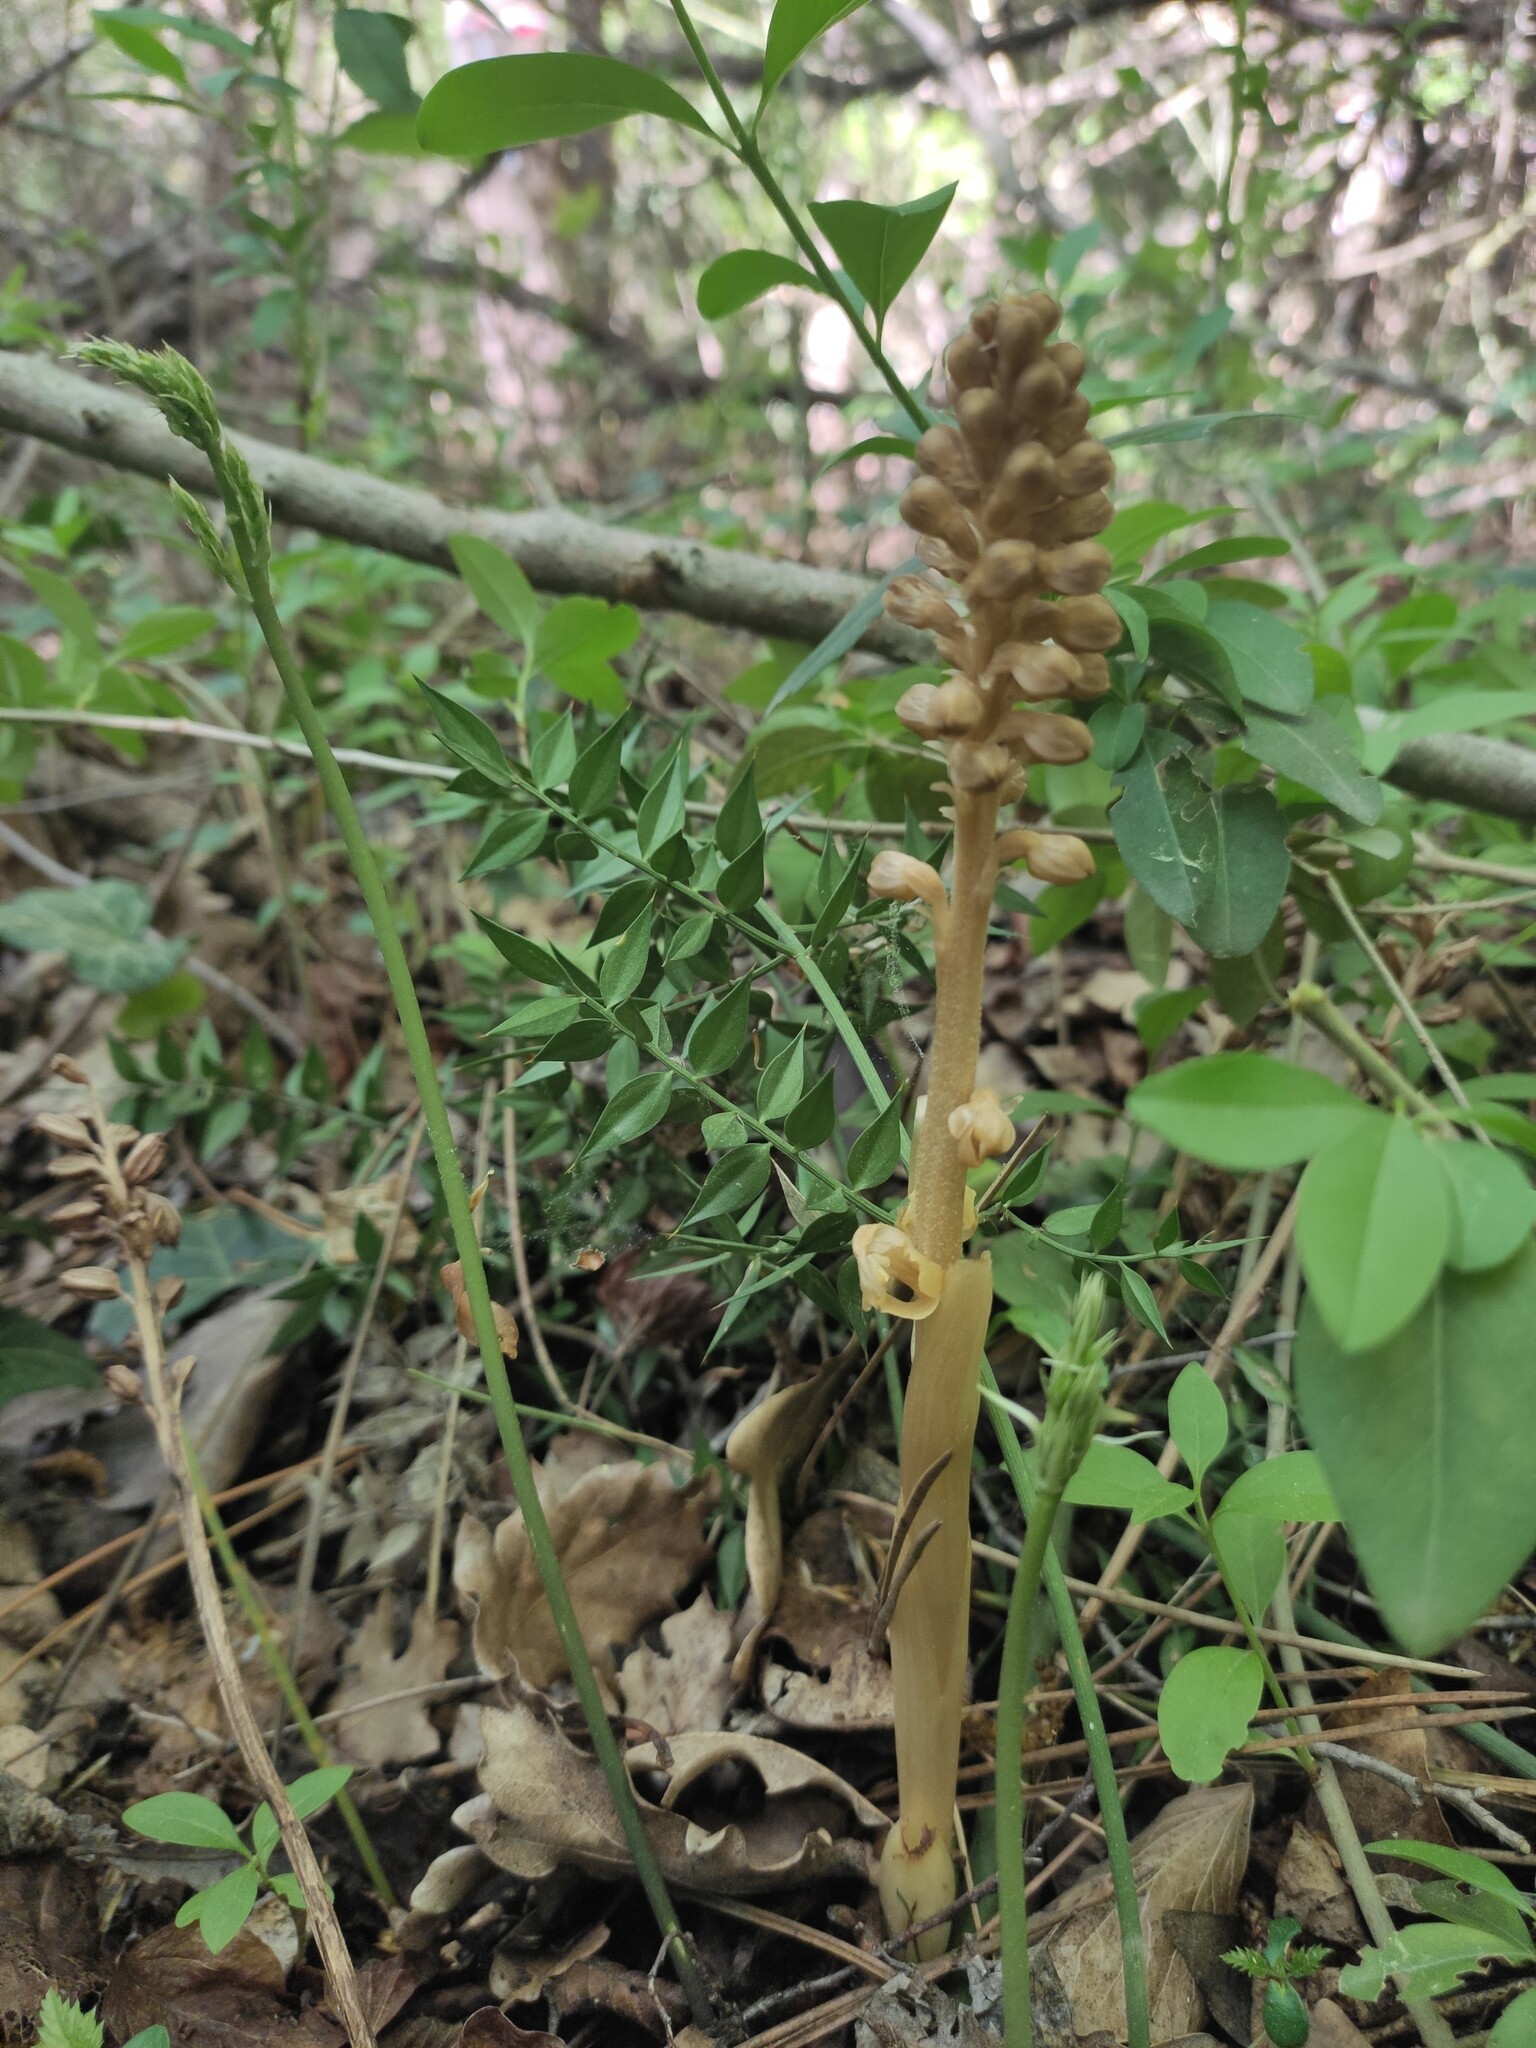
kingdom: Plantae
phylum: Tracheophyta
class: Liliopsida
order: Asparagales
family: Orchidaceae
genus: Neottia
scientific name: Neottia nidus-avis
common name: Bird's-nest orchid
